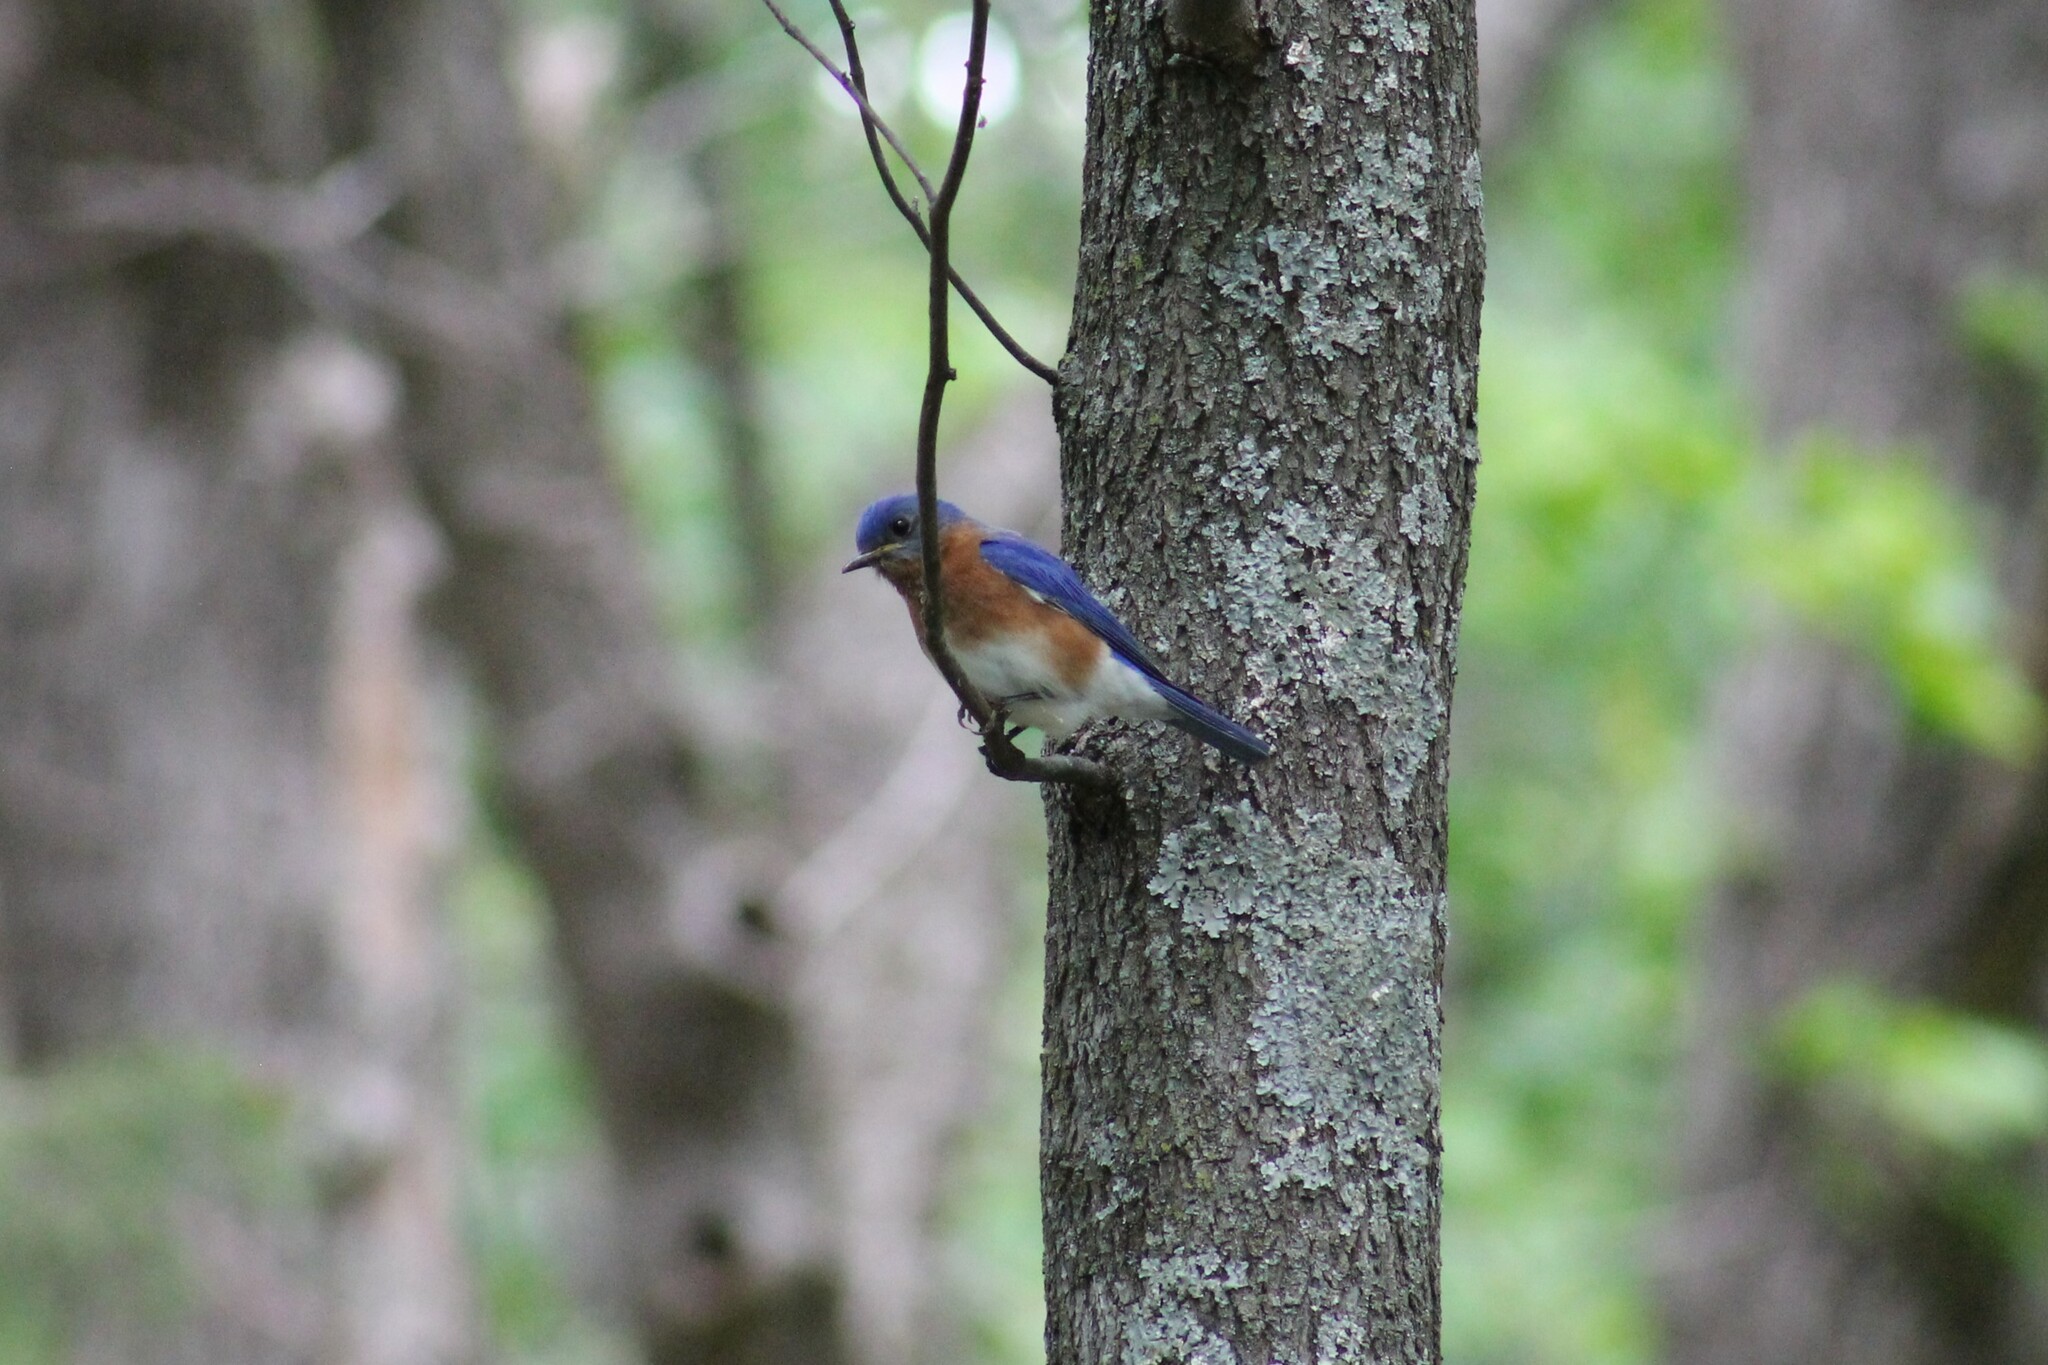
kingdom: Animalia
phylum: Chordata
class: Aves
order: Passeriformes
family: Turdidae
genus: Sialia
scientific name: Sialia sialis
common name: Eastern bluebird
